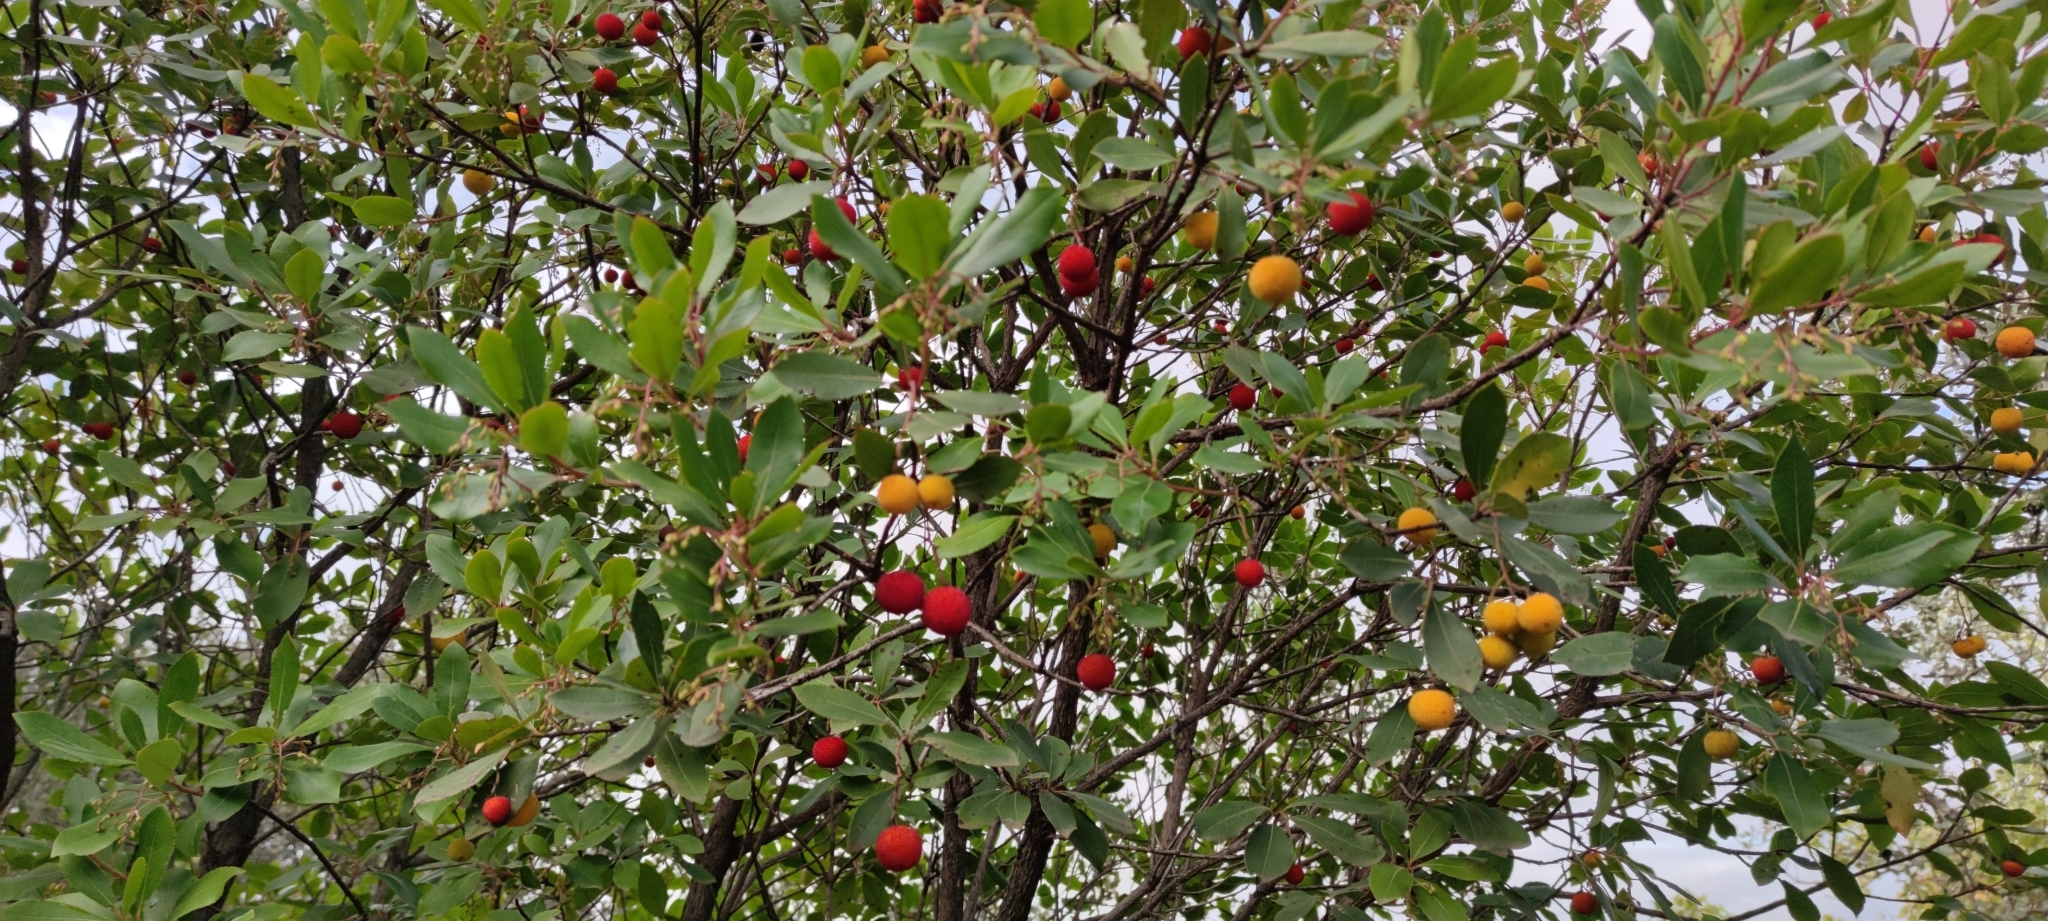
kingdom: Plantae
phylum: Tracheophyta
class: Magnoliopsida
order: Ericales
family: Ericaceae
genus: Arbutus
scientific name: Arbutus unedo
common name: Strawberry-tree
